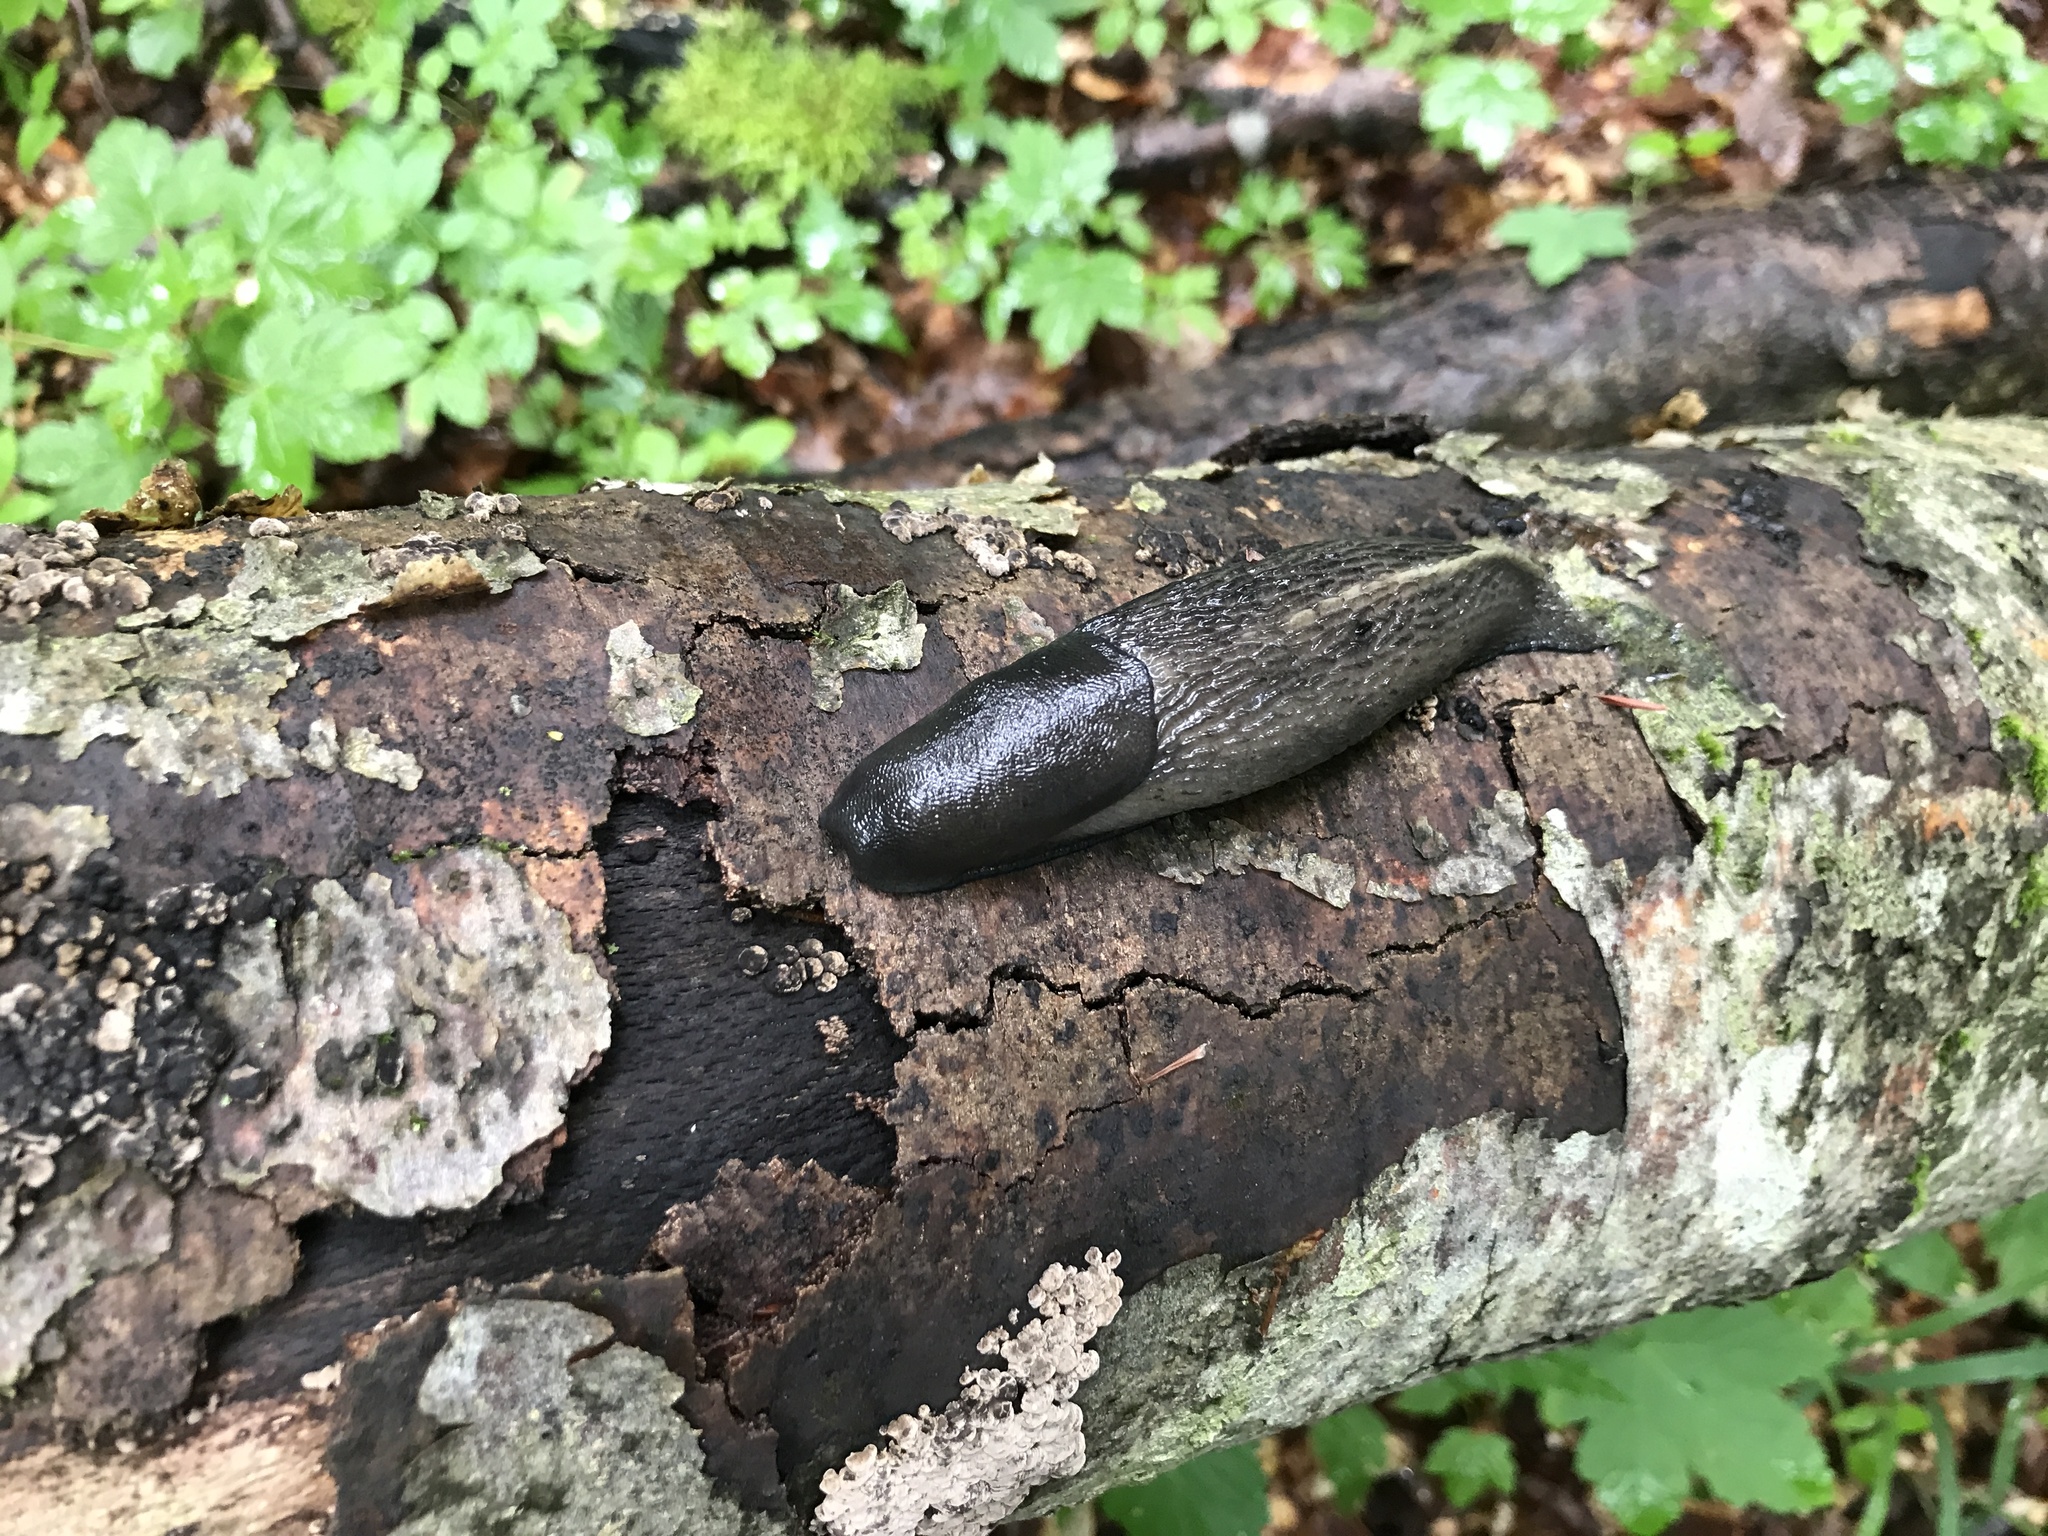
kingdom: Animalia
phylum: Mollusca
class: Gastropoda
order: Stylommatophora
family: Limacidae
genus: Limax
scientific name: Limax cinereoniger
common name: Ash-black slug
